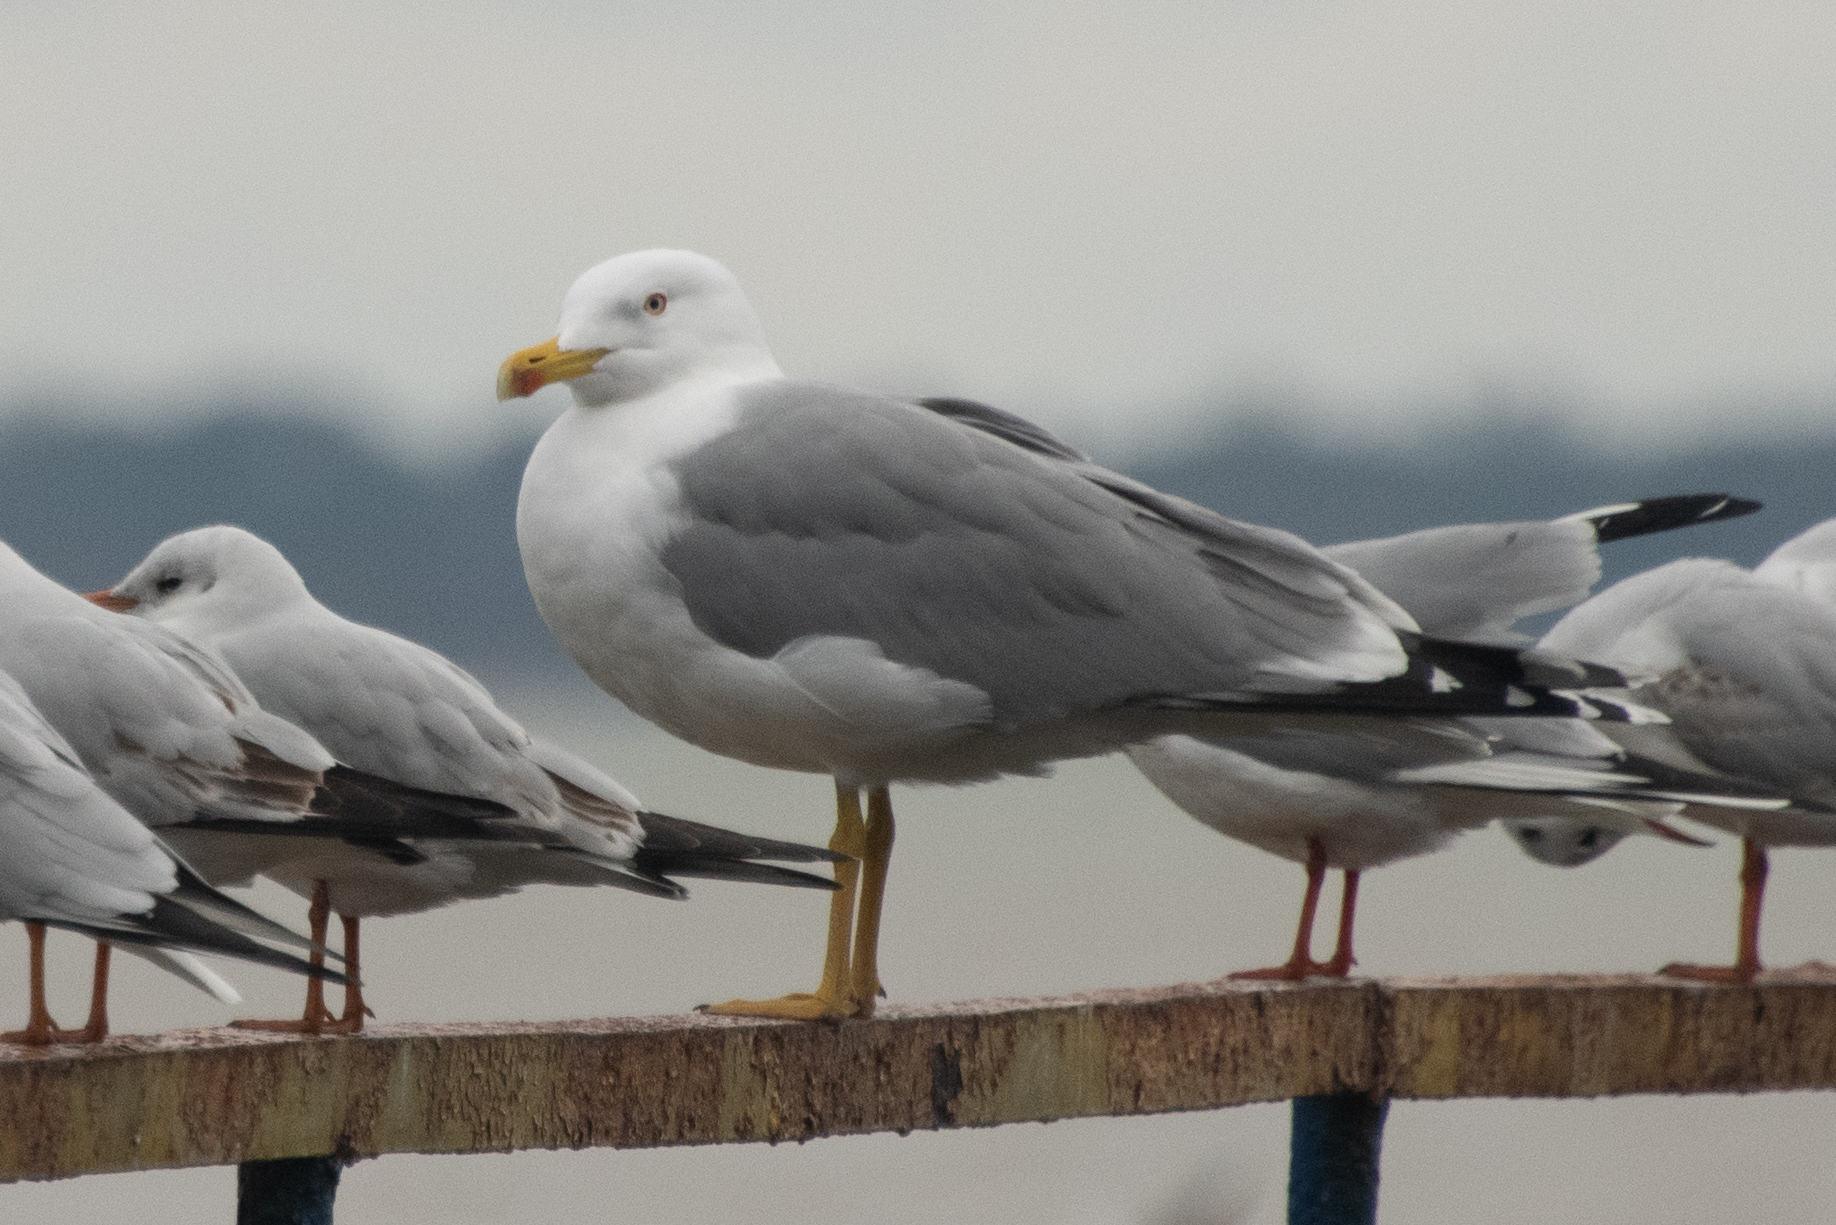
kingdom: Animalia
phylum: Chordata
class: Aves
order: Charadriiformes
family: Laridae
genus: Larus
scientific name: Larus michahellis
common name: Yellow-legged gull
